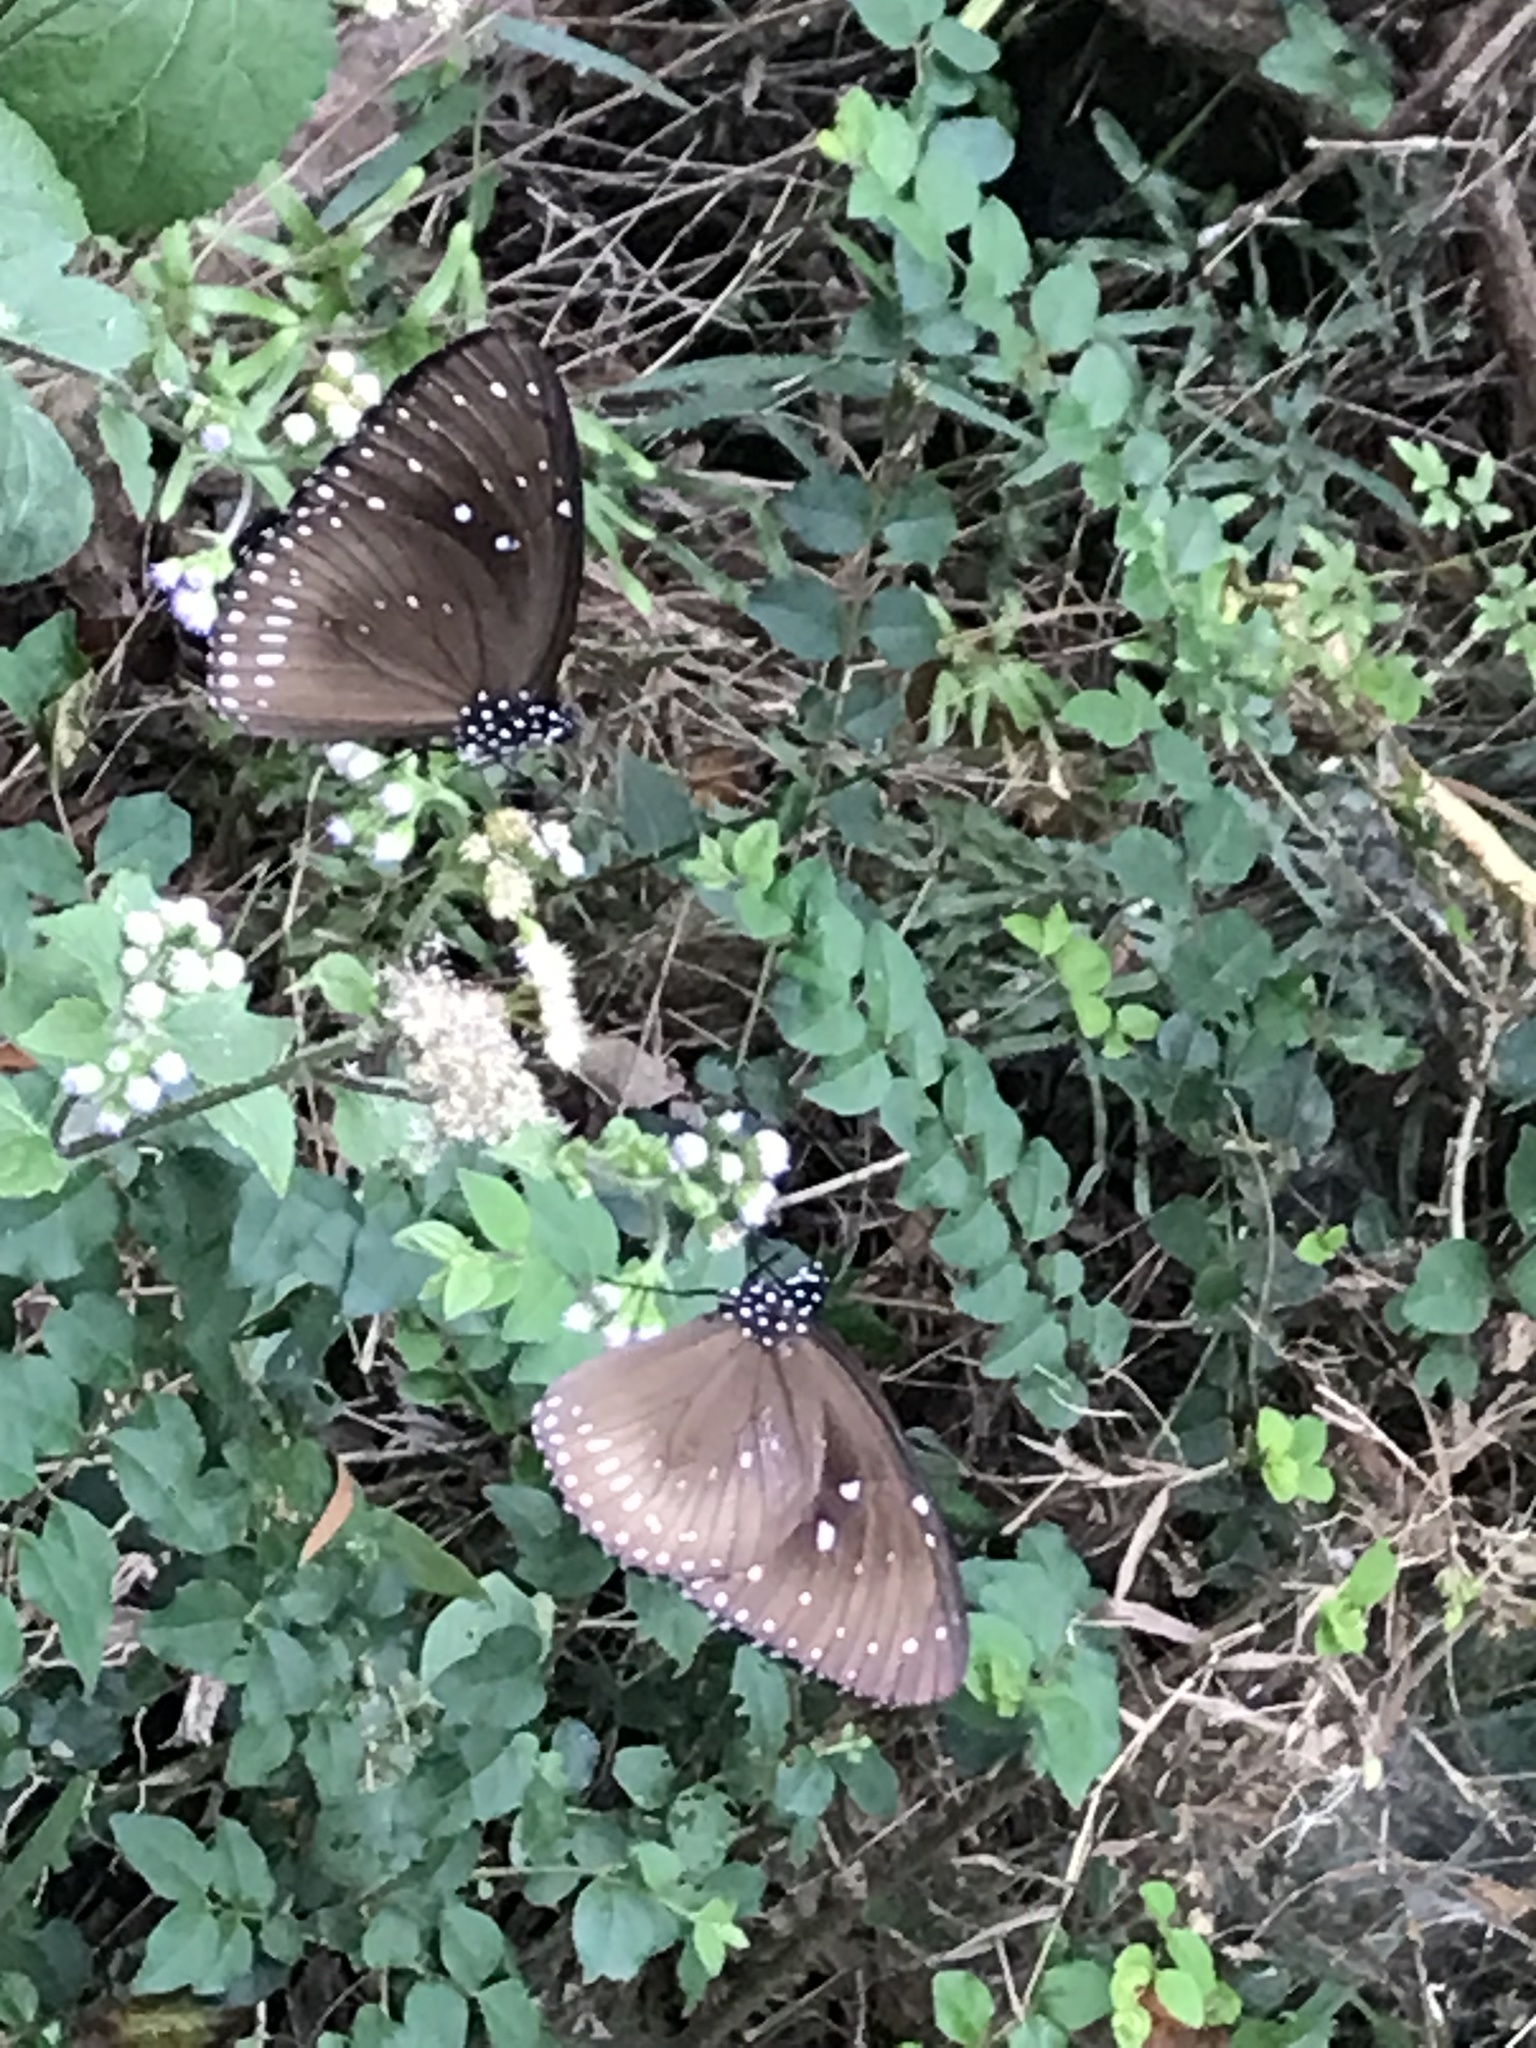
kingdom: Animalia
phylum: Arthropoda
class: Insecta
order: Lepidoptera
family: Nymphalidae
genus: Euploea
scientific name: Euploea midamus
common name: Blue-spotted crow butterfly
